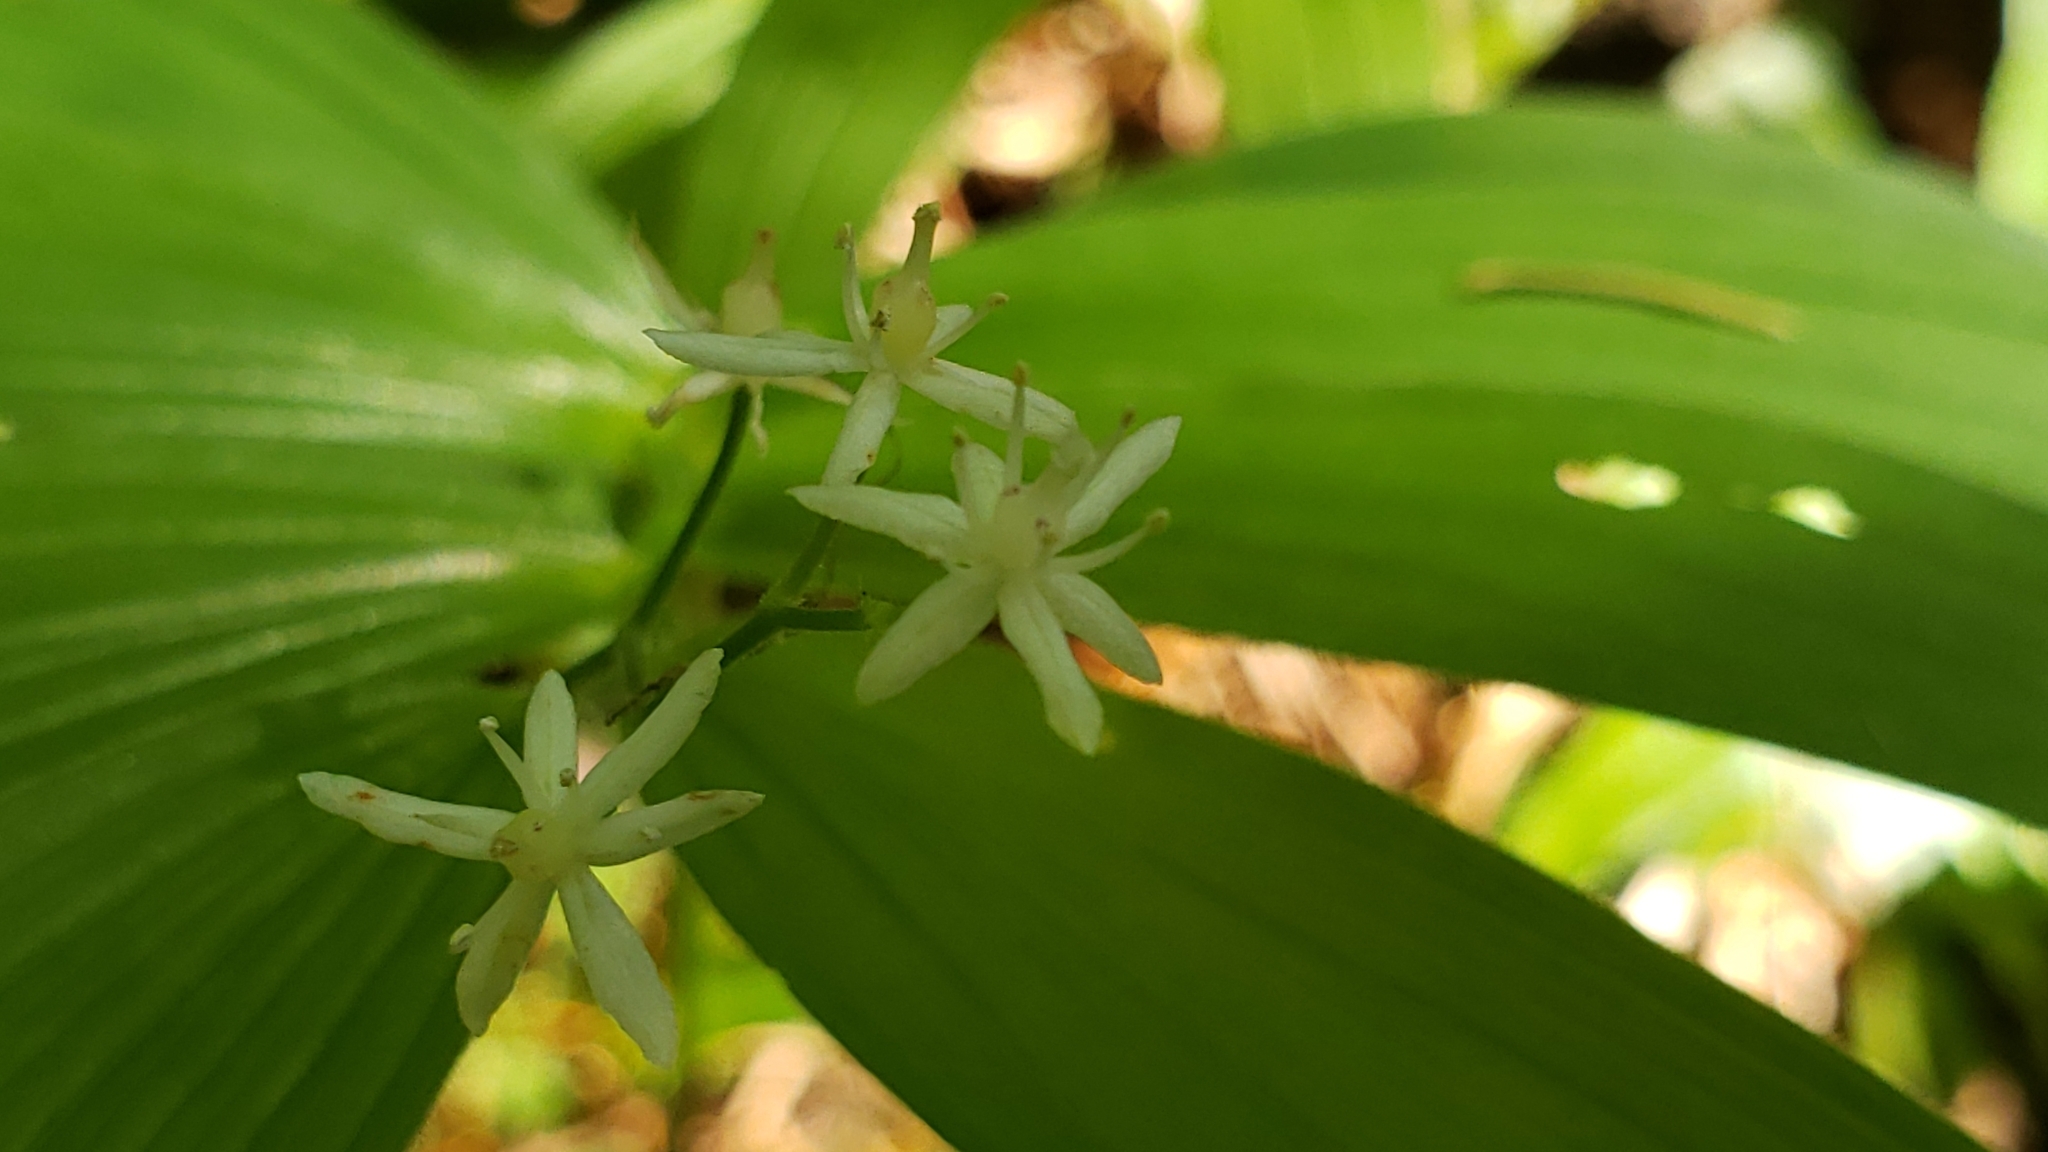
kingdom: Plantae
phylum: Tracheophyta
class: Liliopsida
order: Asparagales
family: Asparagaceae
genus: Maianthemum
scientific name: Maianthemum stellatum
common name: Little false solomon's seal
